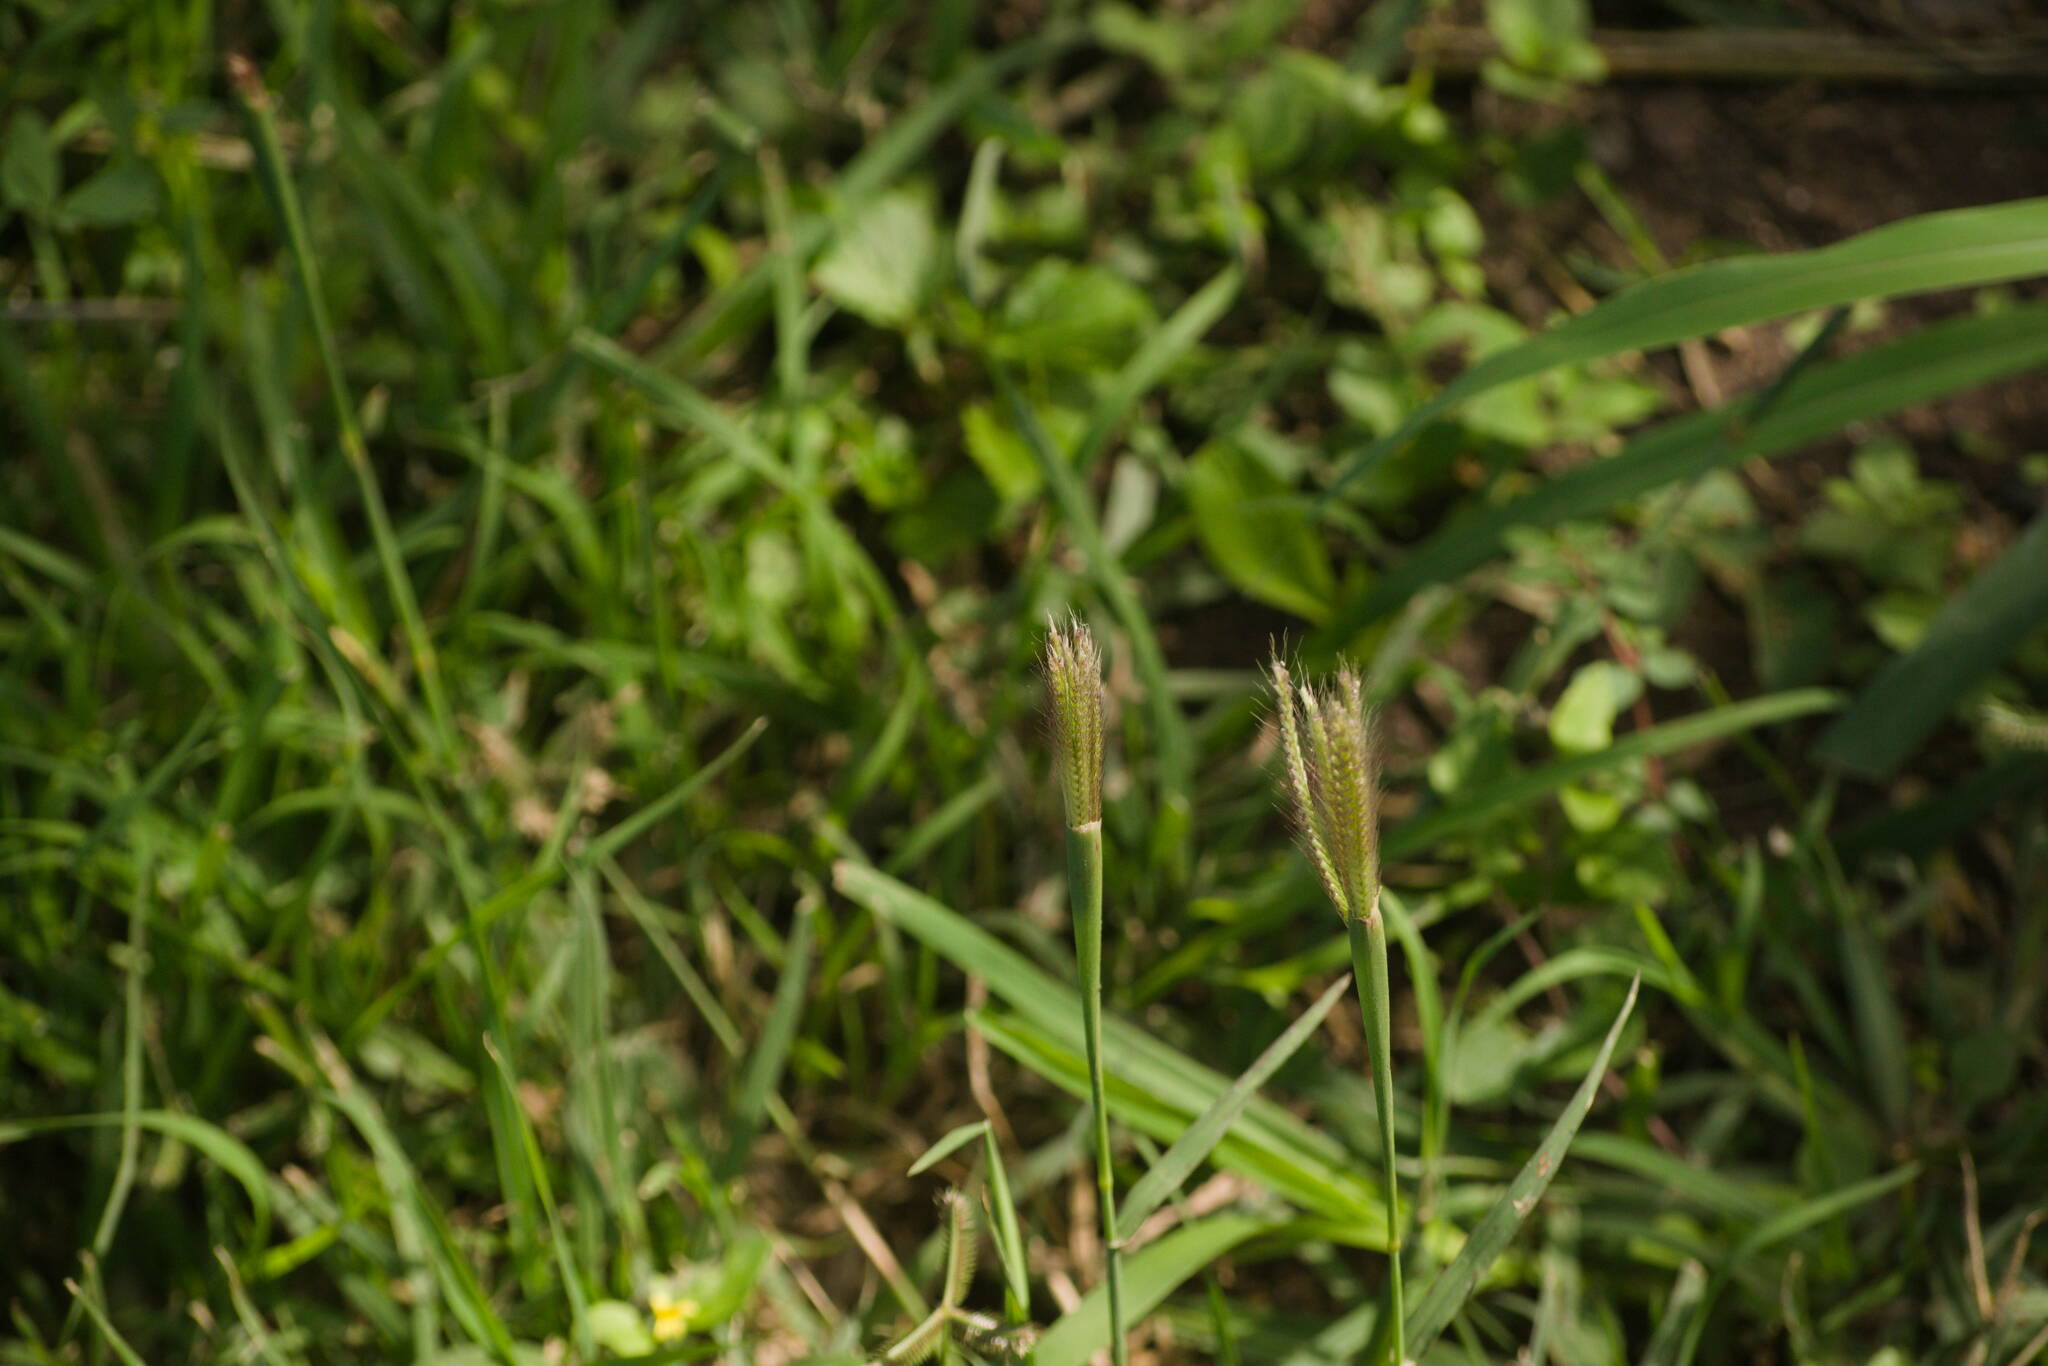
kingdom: Plantae
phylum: Tracheophyta
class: Liliopsida
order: Poales
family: Poaceae
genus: Chloris
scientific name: Chloris barbata
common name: Swollen fingergrass
